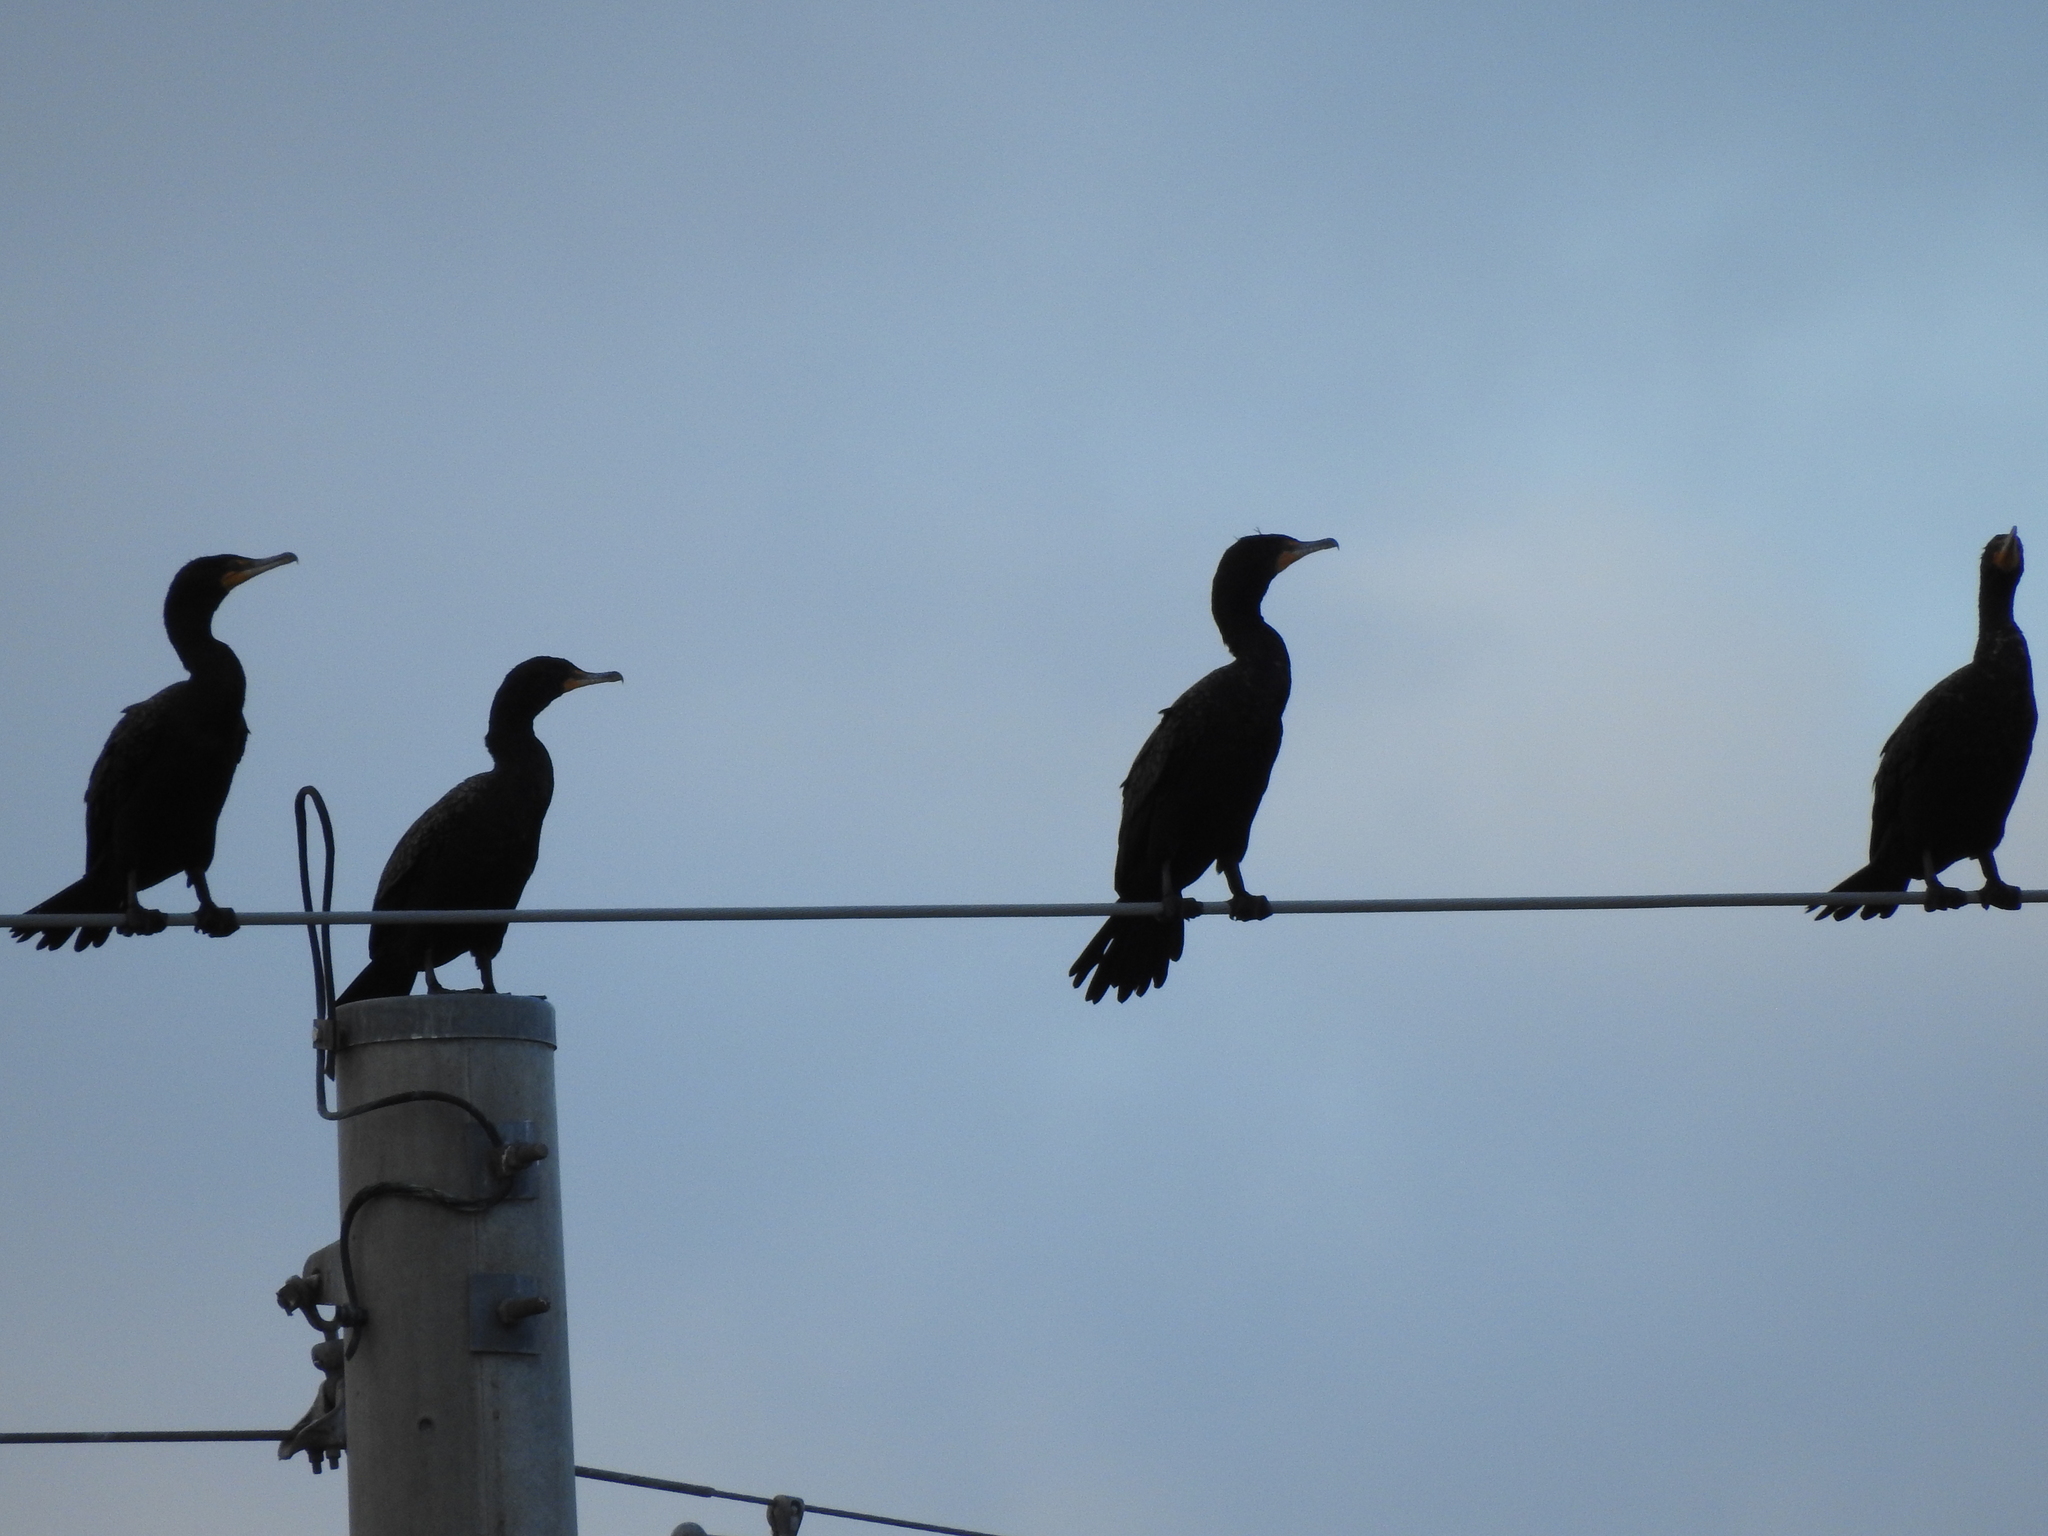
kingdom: Animalia
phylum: Chordata
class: Aves
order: Suliformes
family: Phalacrocoracidae
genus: Phalacrocorax
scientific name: Phalacrocorax auritus
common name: Double-crested cormorant
